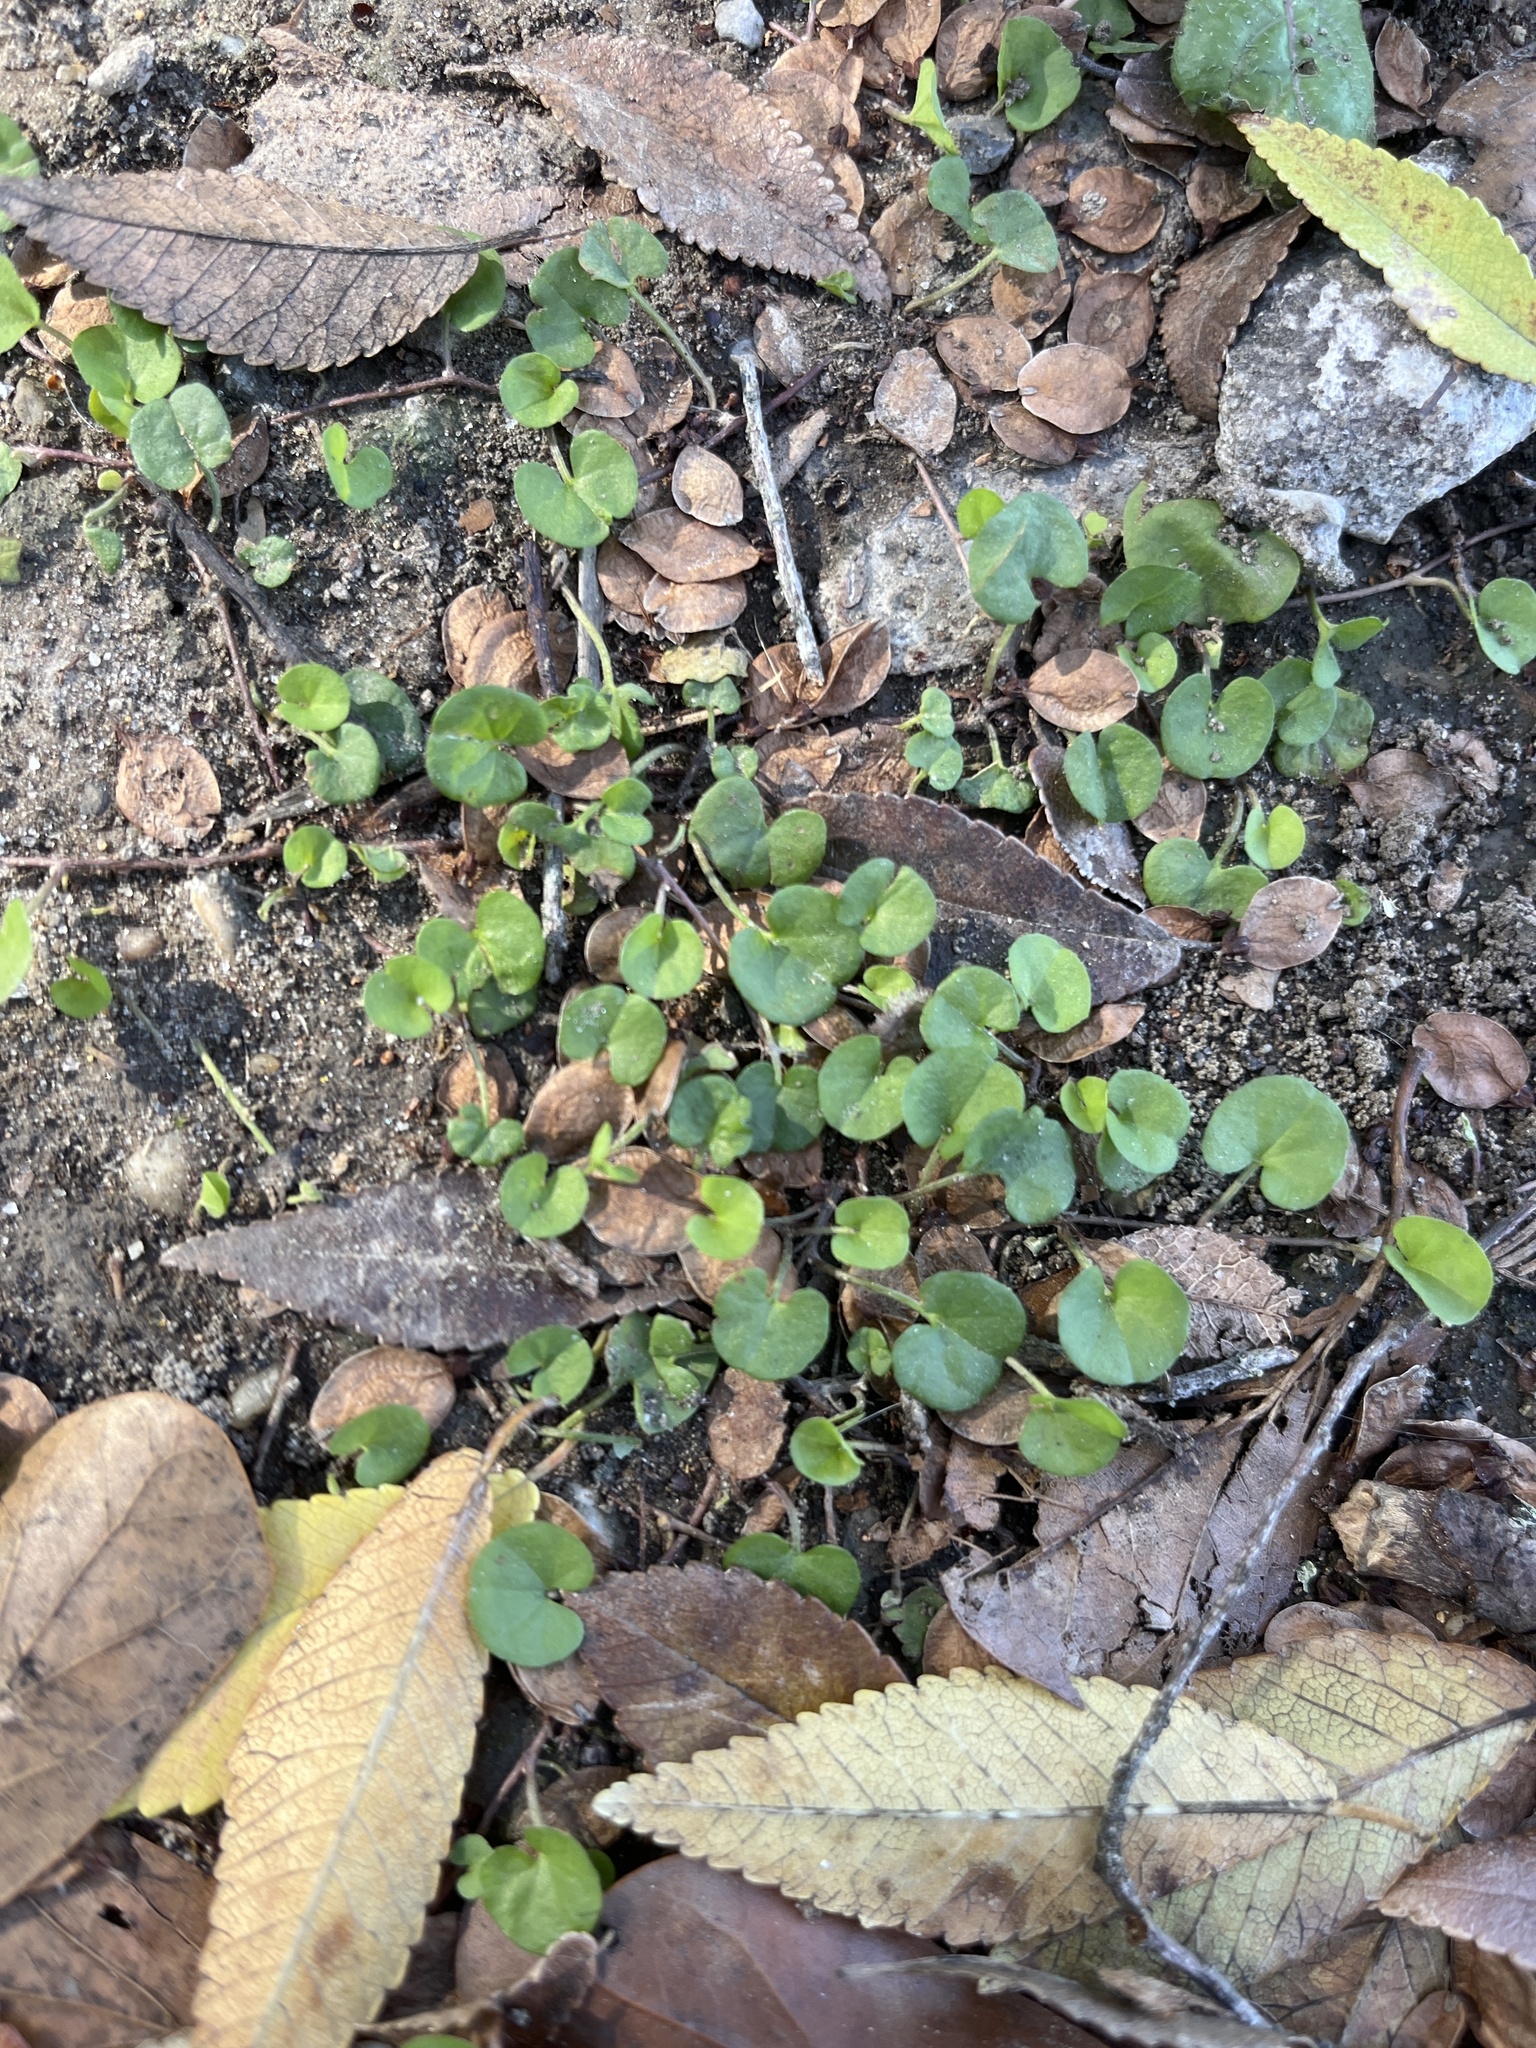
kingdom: Plantae
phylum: Tracheophyta
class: Magnoliopsida
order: Solanales
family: Convolvulaceae
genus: Dichondra
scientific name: Dichondra carolinensis
